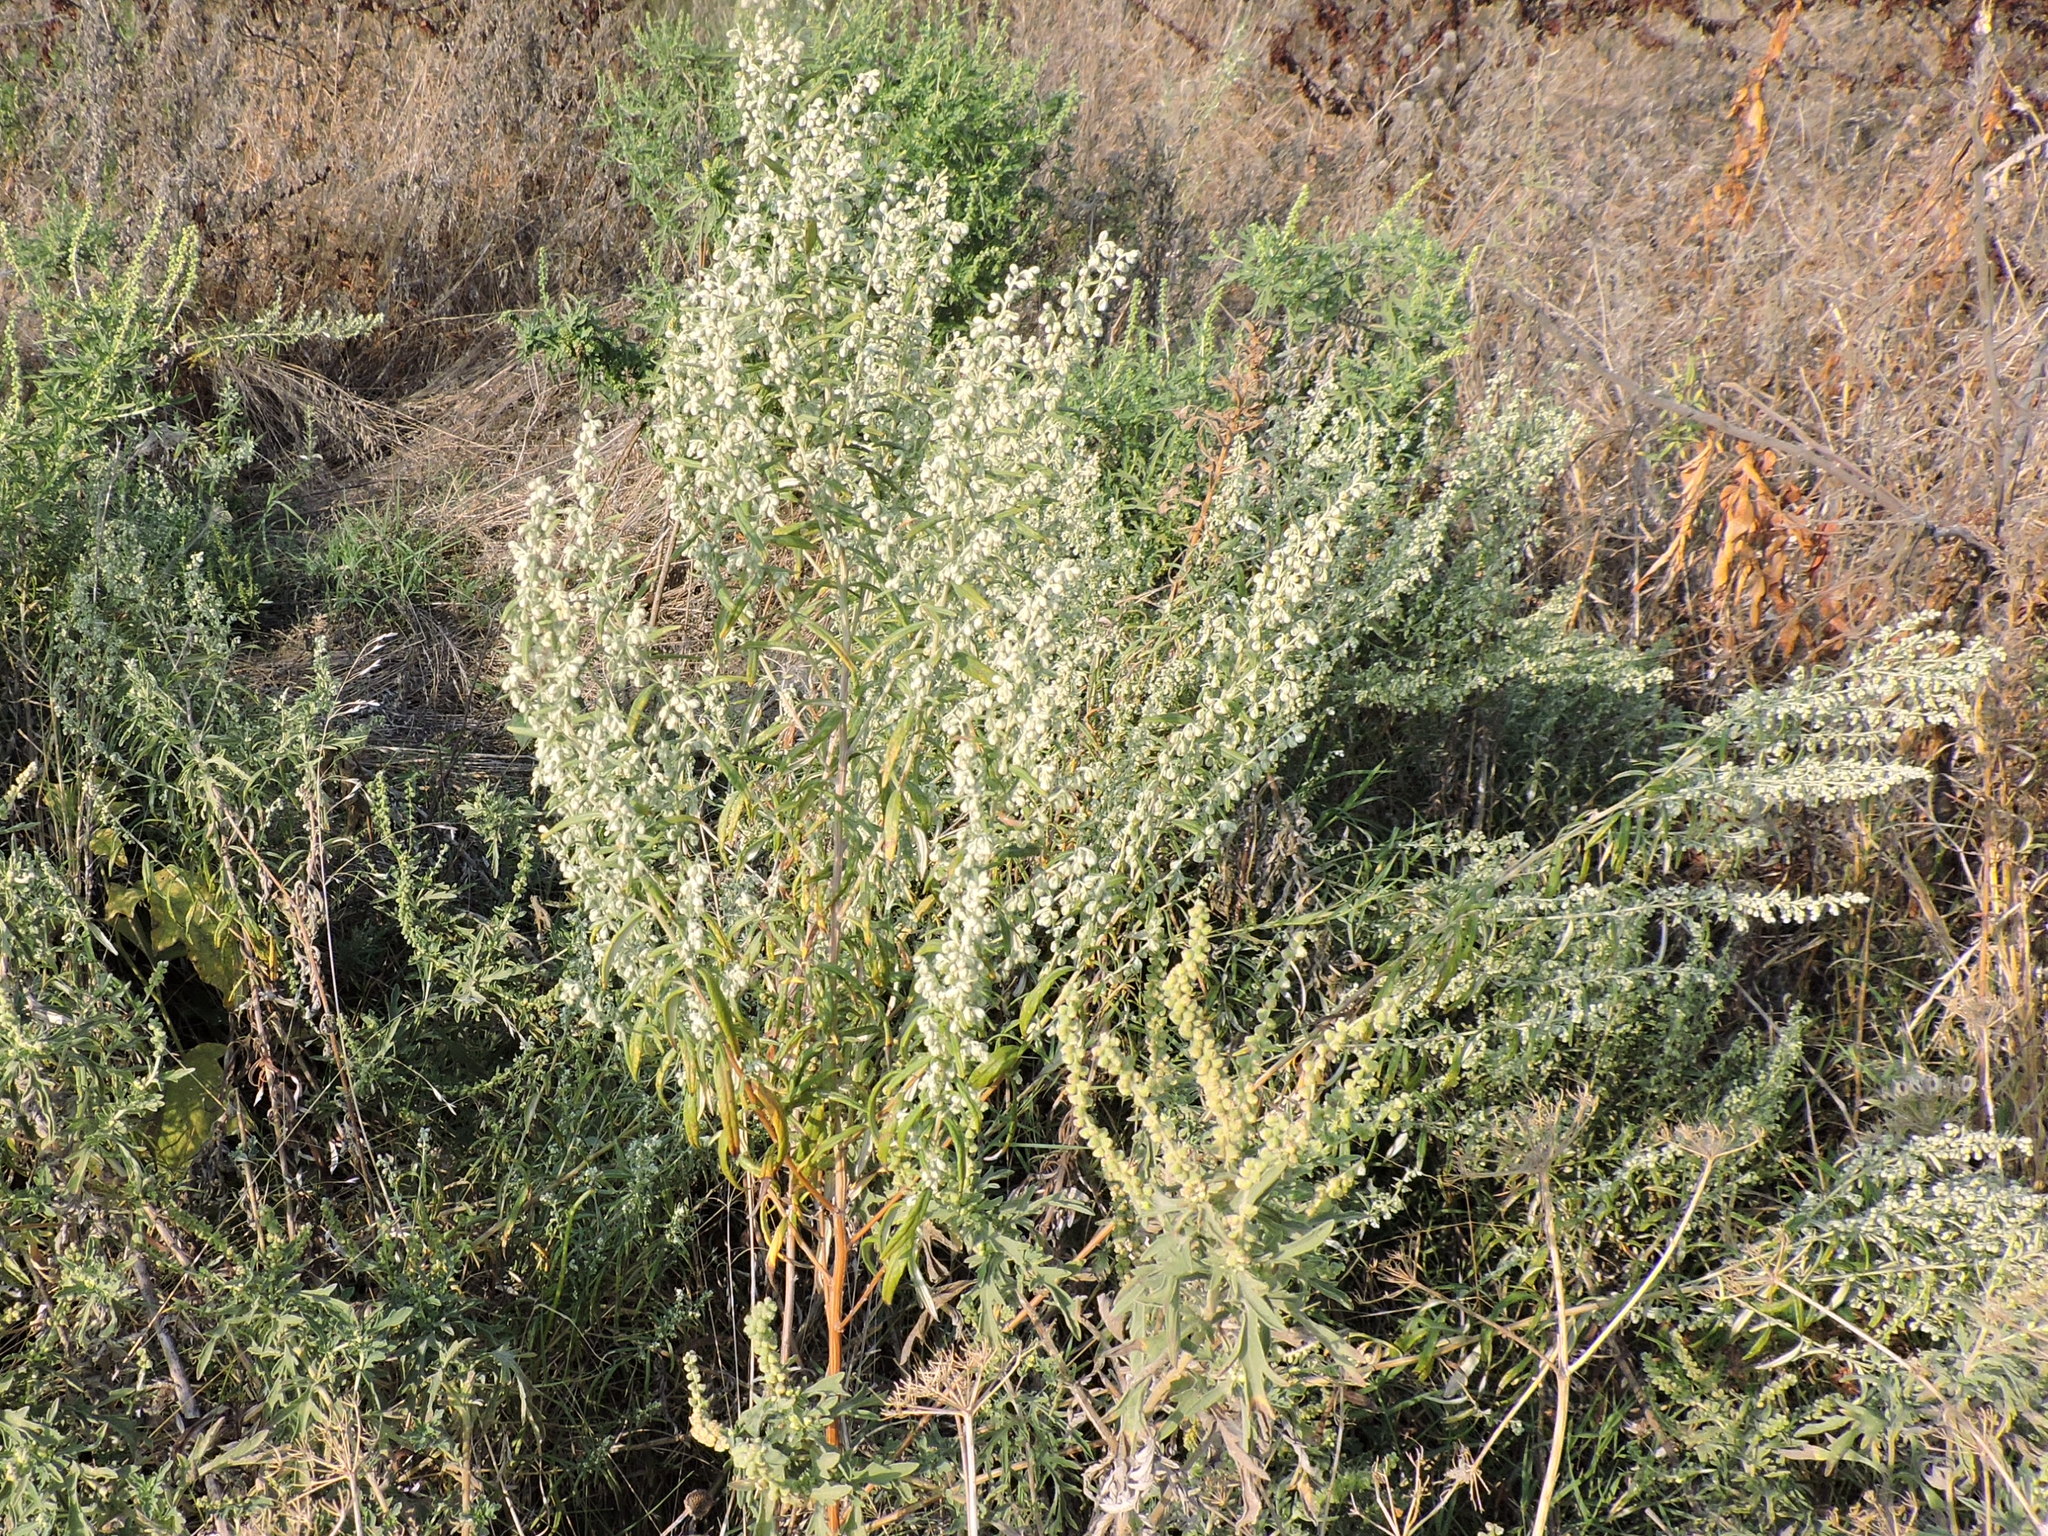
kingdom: Plantae
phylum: Tracheophyta
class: Magnoliopsida
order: Asterales
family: Asteraceae
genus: Artemisia
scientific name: Artemisia ludoviciana
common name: Western mugwort
